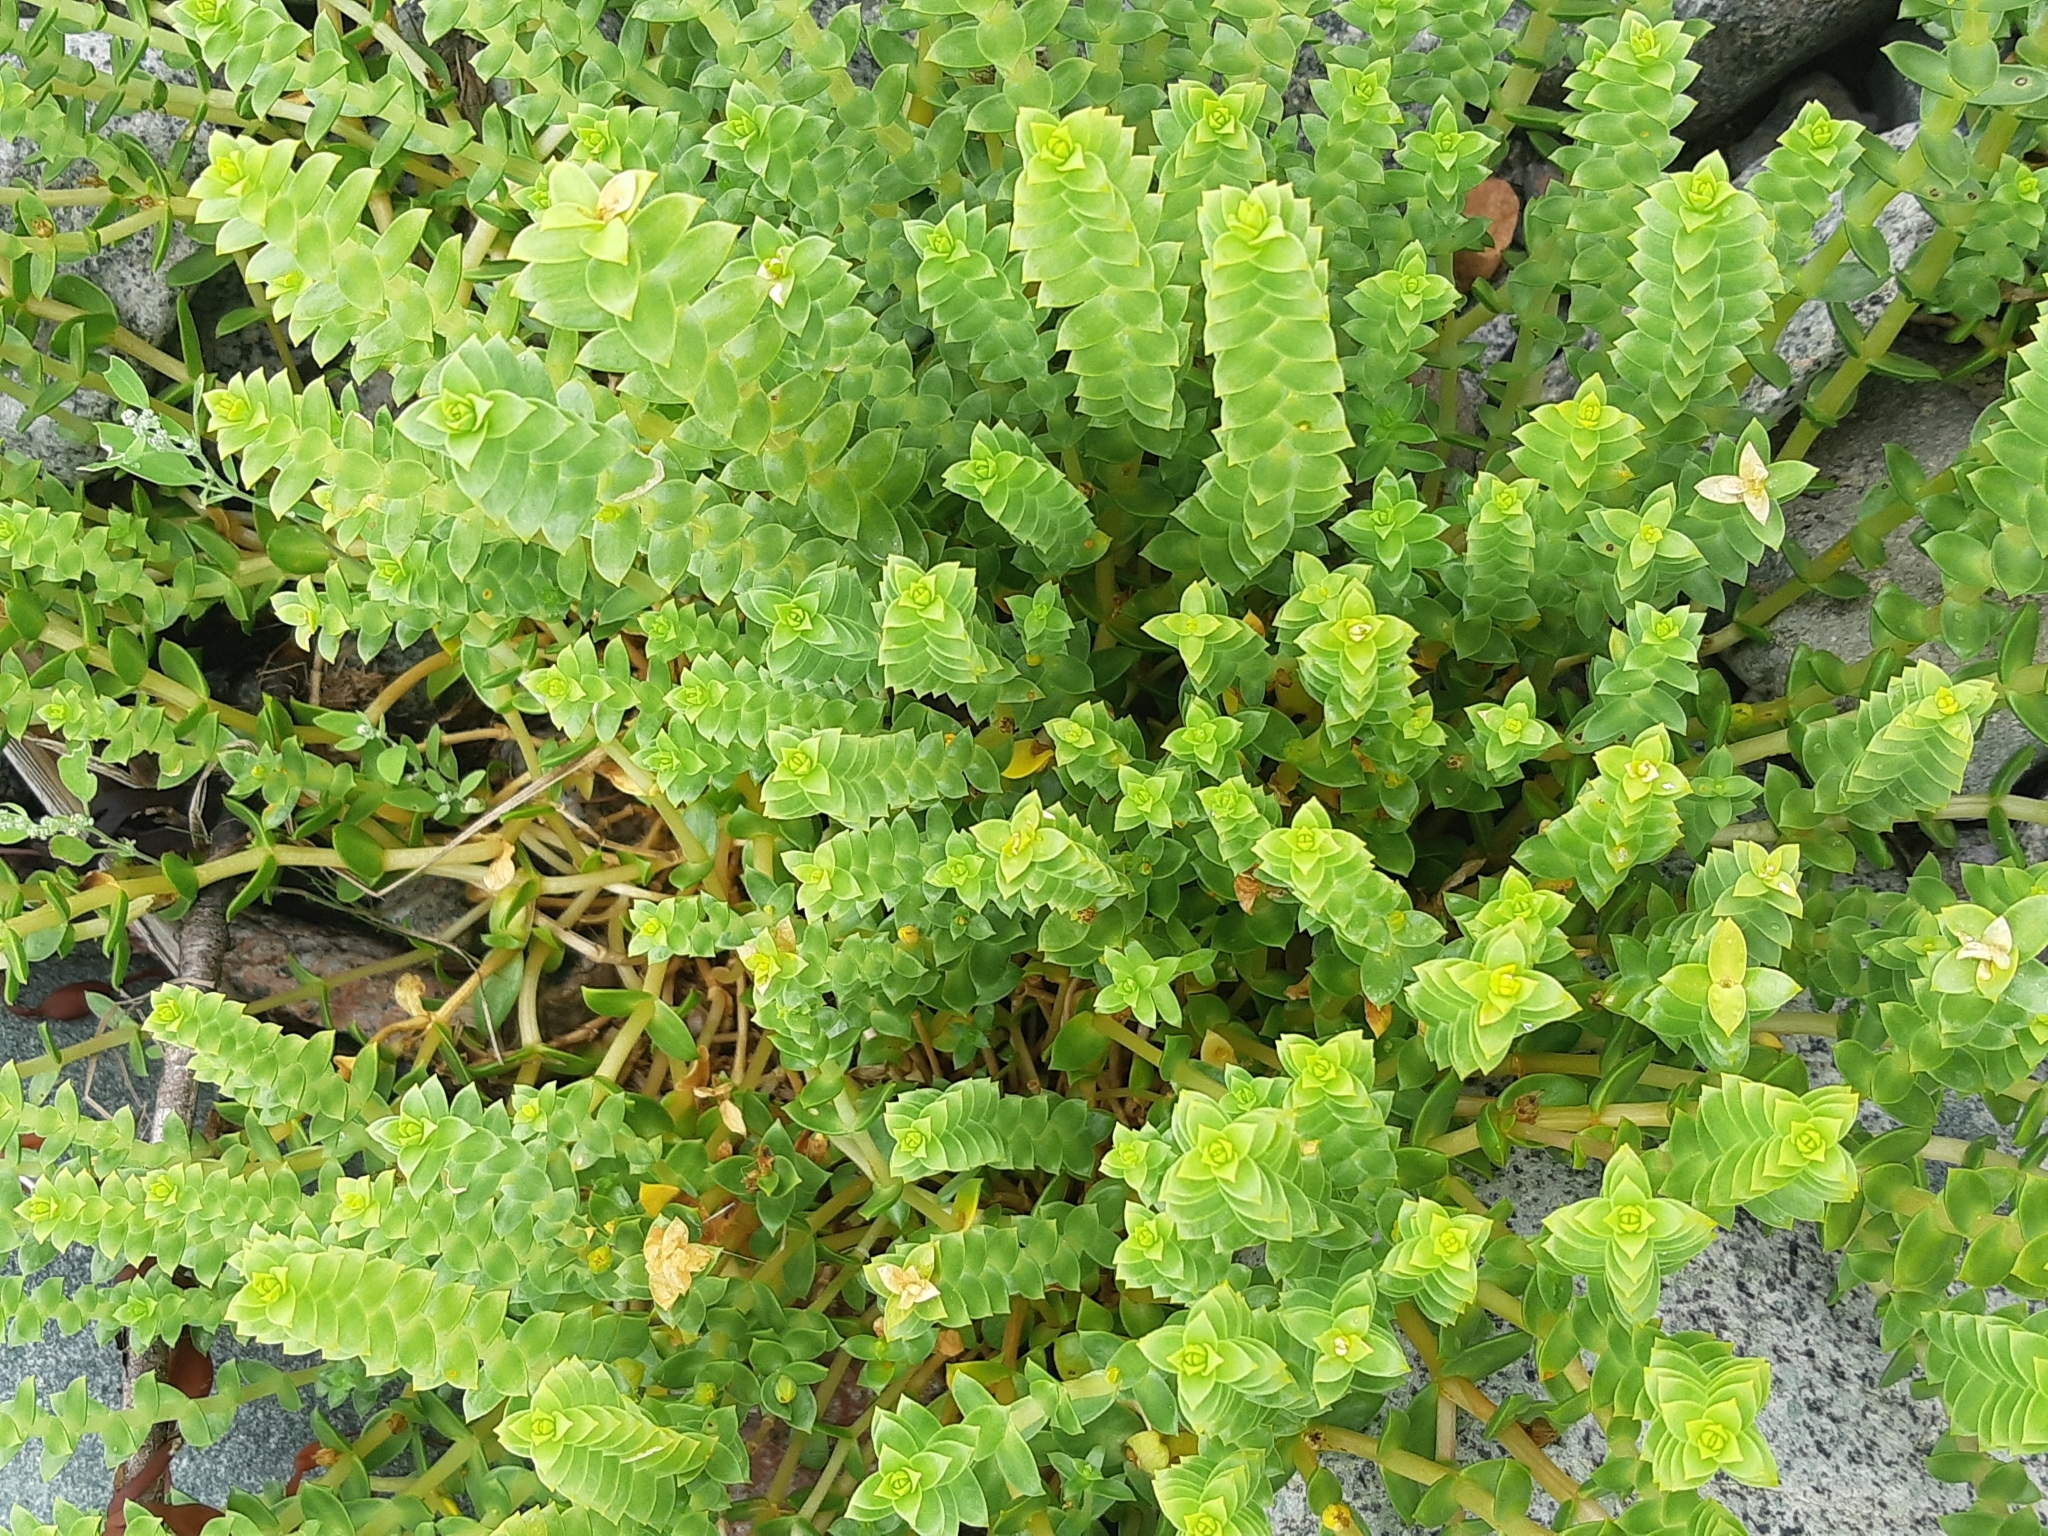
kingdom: Plantae
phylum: Tracheophyta
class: Magnoliopsida
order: Caryophyllales
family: Caryophyllaceae
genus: Honckenya
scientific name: Honckenya peploides
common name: Sea sandwort
